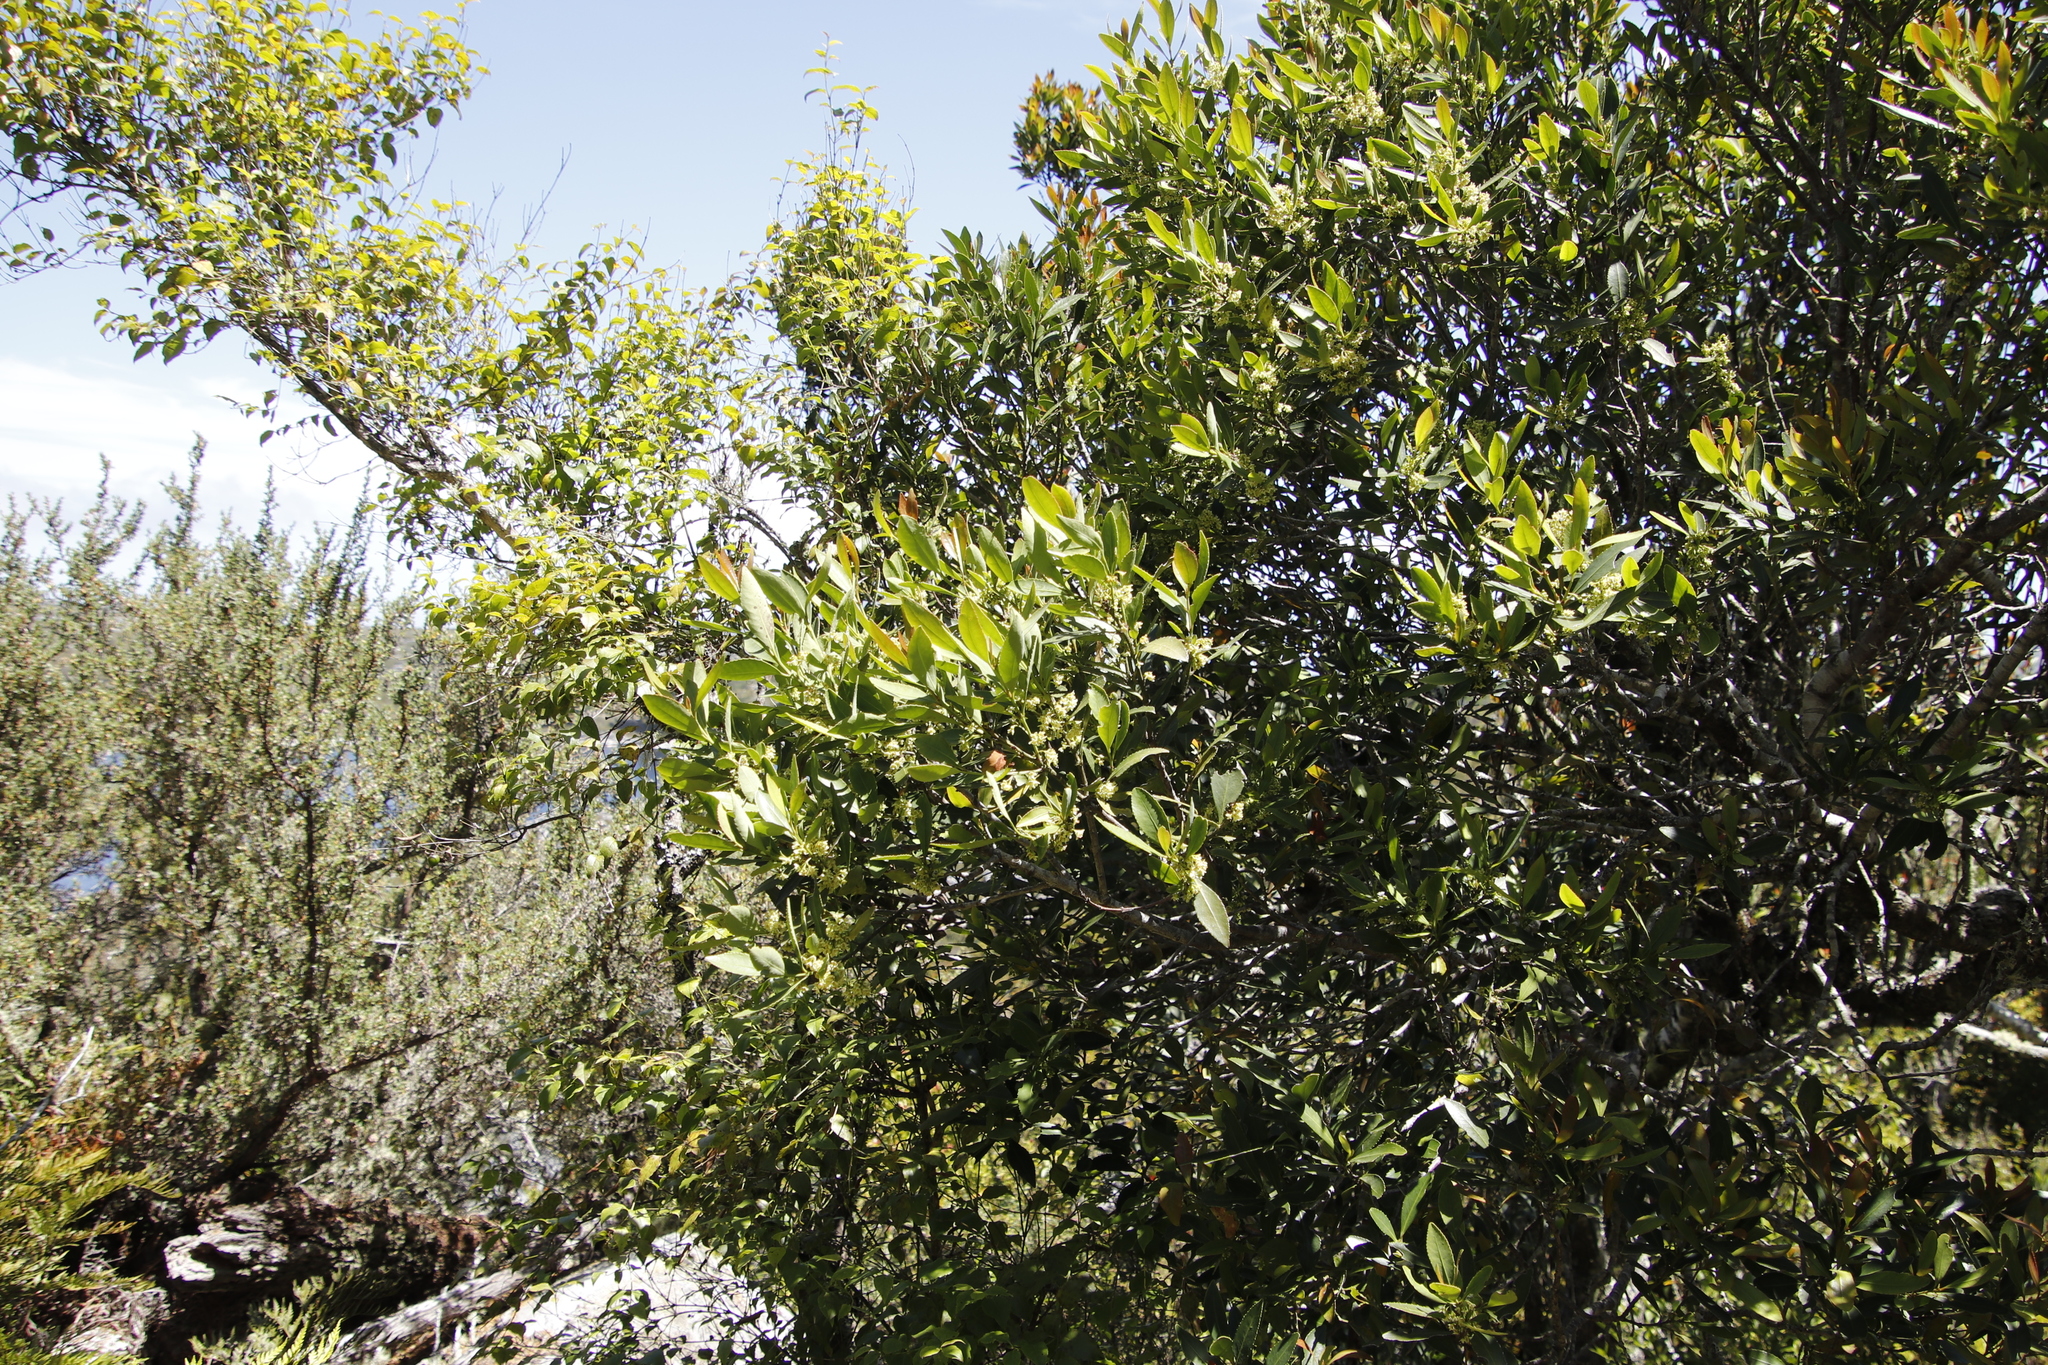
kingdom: Plantae
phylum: Tracheophyta
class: Magnoliopsida
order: Celastrales
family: Celastraceae
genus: Elaeodendron
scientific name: Elaeodendron schinoides
